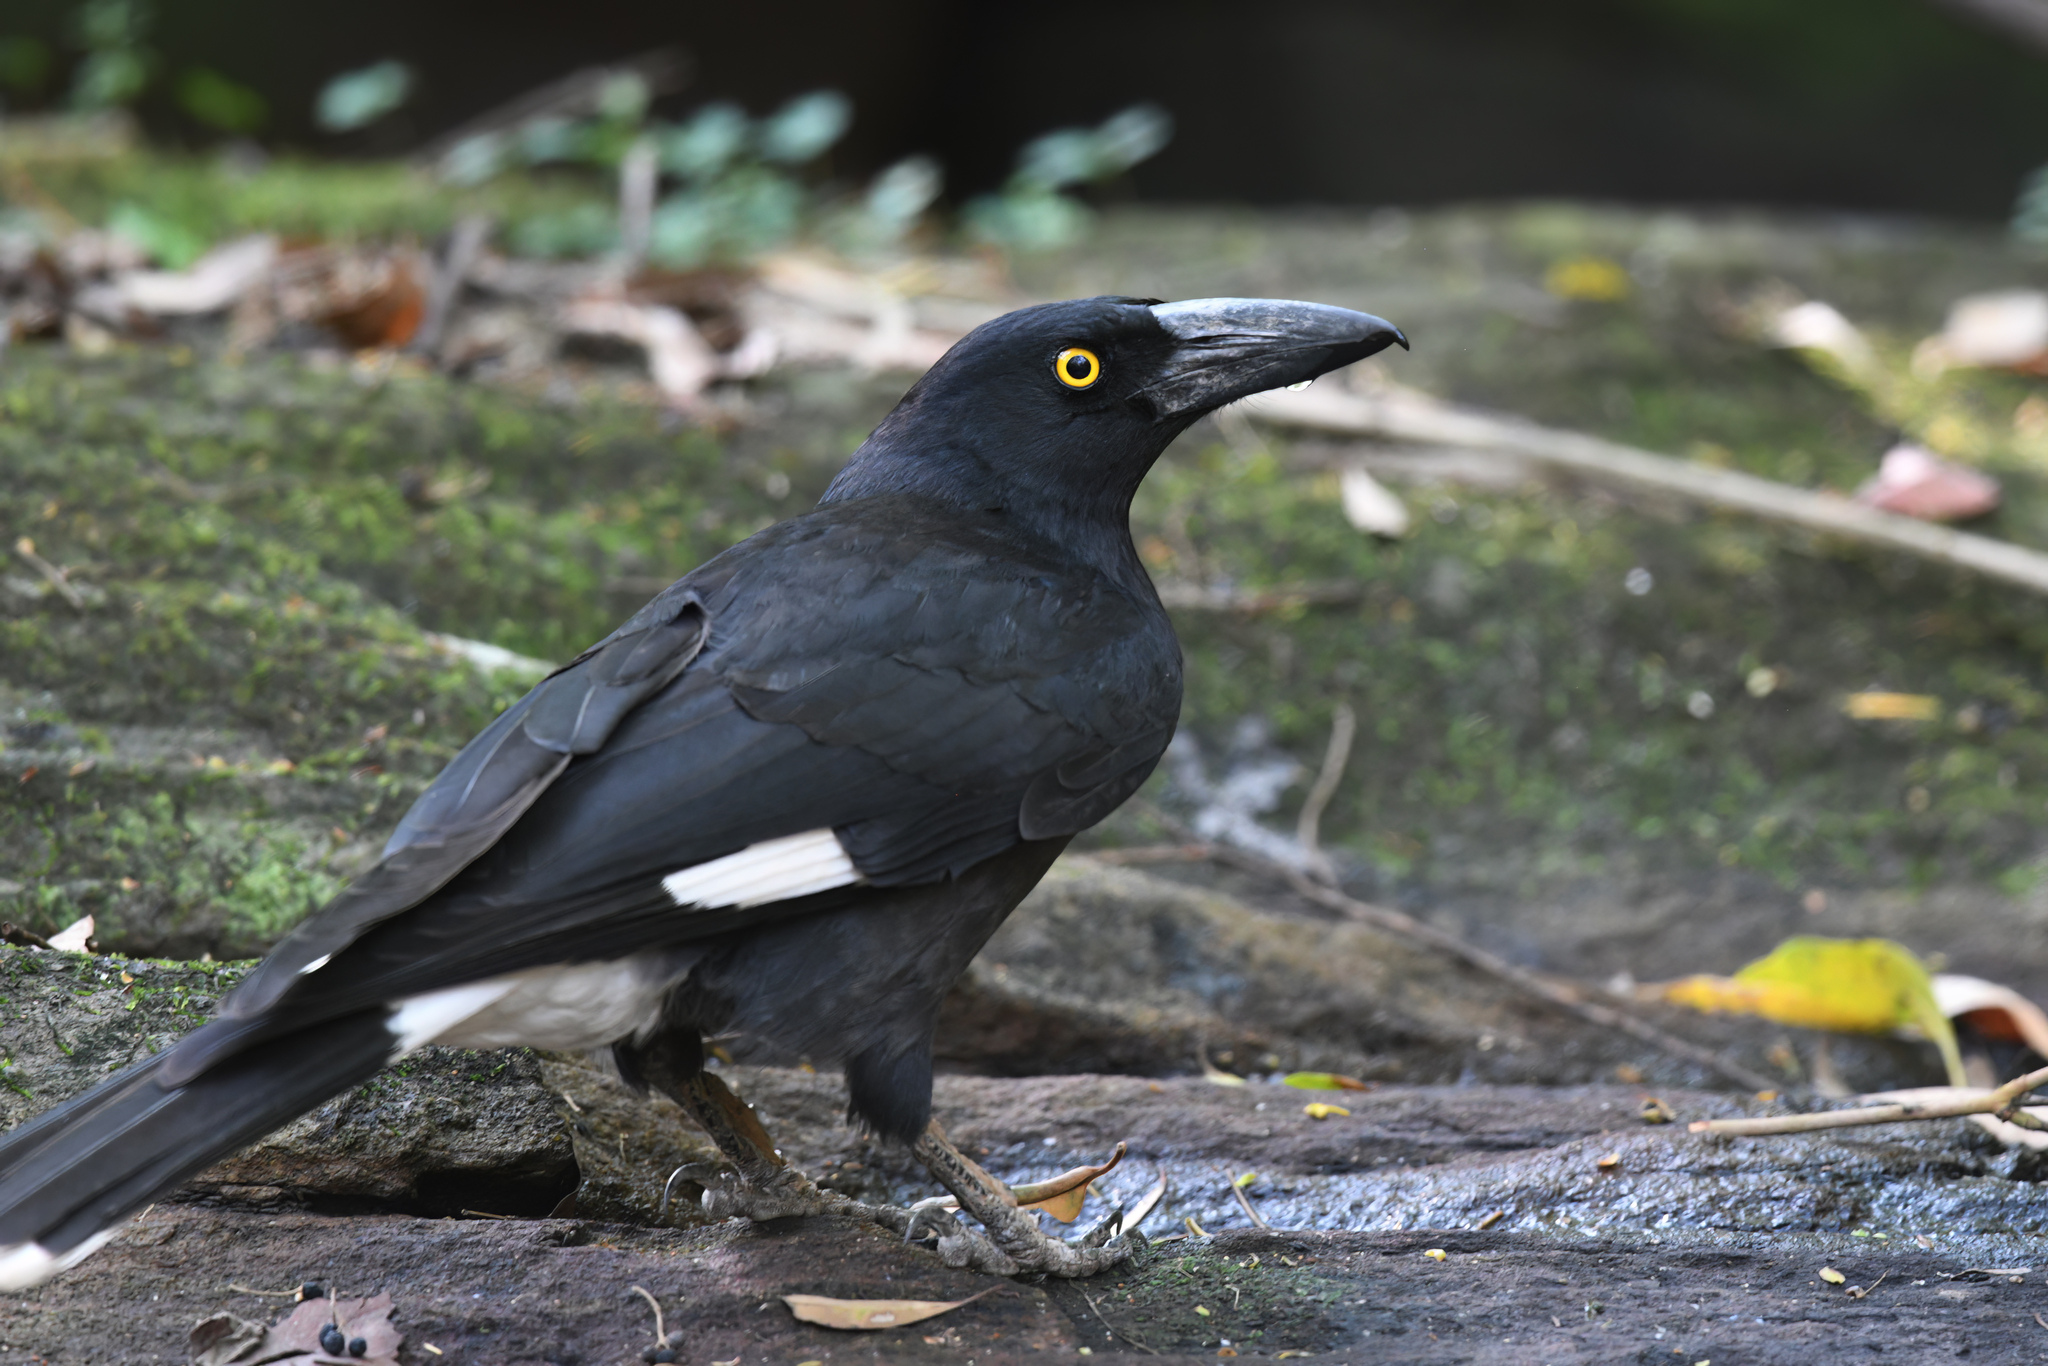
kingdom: Animalia
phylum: Chordata
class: Aves
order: Passeriformes
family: Cracticidae
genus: Strepera
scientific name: Strepera graculina
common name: Pied currawong
